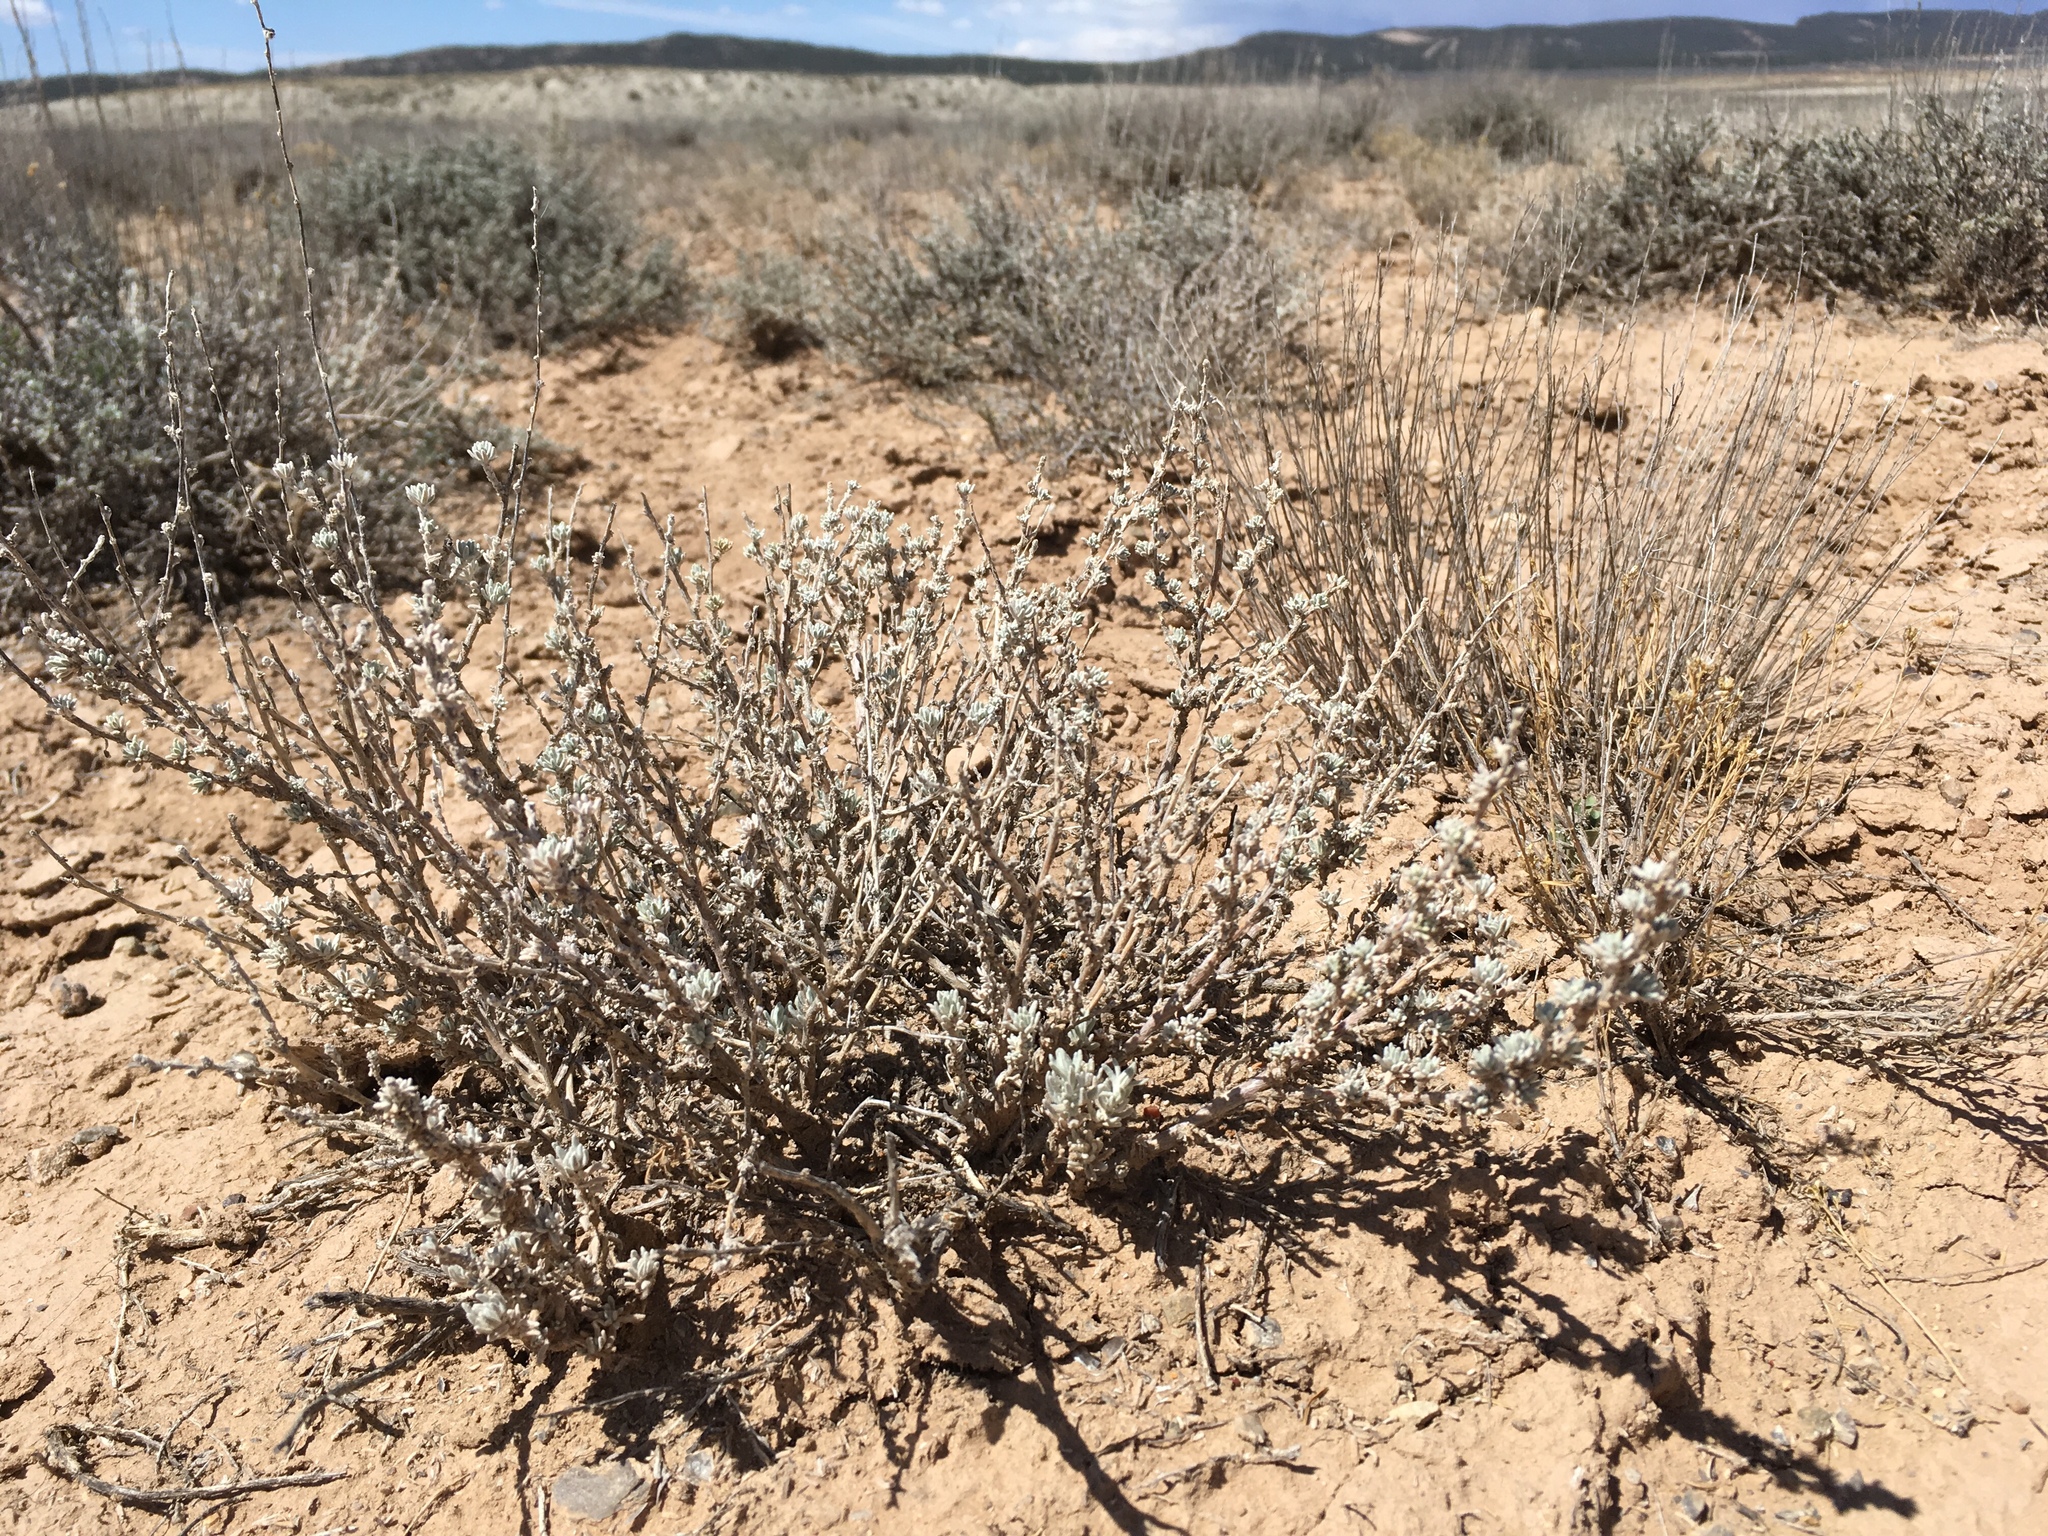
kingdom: Plantae
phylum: Tracheophyta
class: Magnoliopsida
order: Caryophyllales
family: Amaranthaceae
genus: Krascheninnikovia
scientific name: Krascheninnikovia lanata
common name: Winterfat
